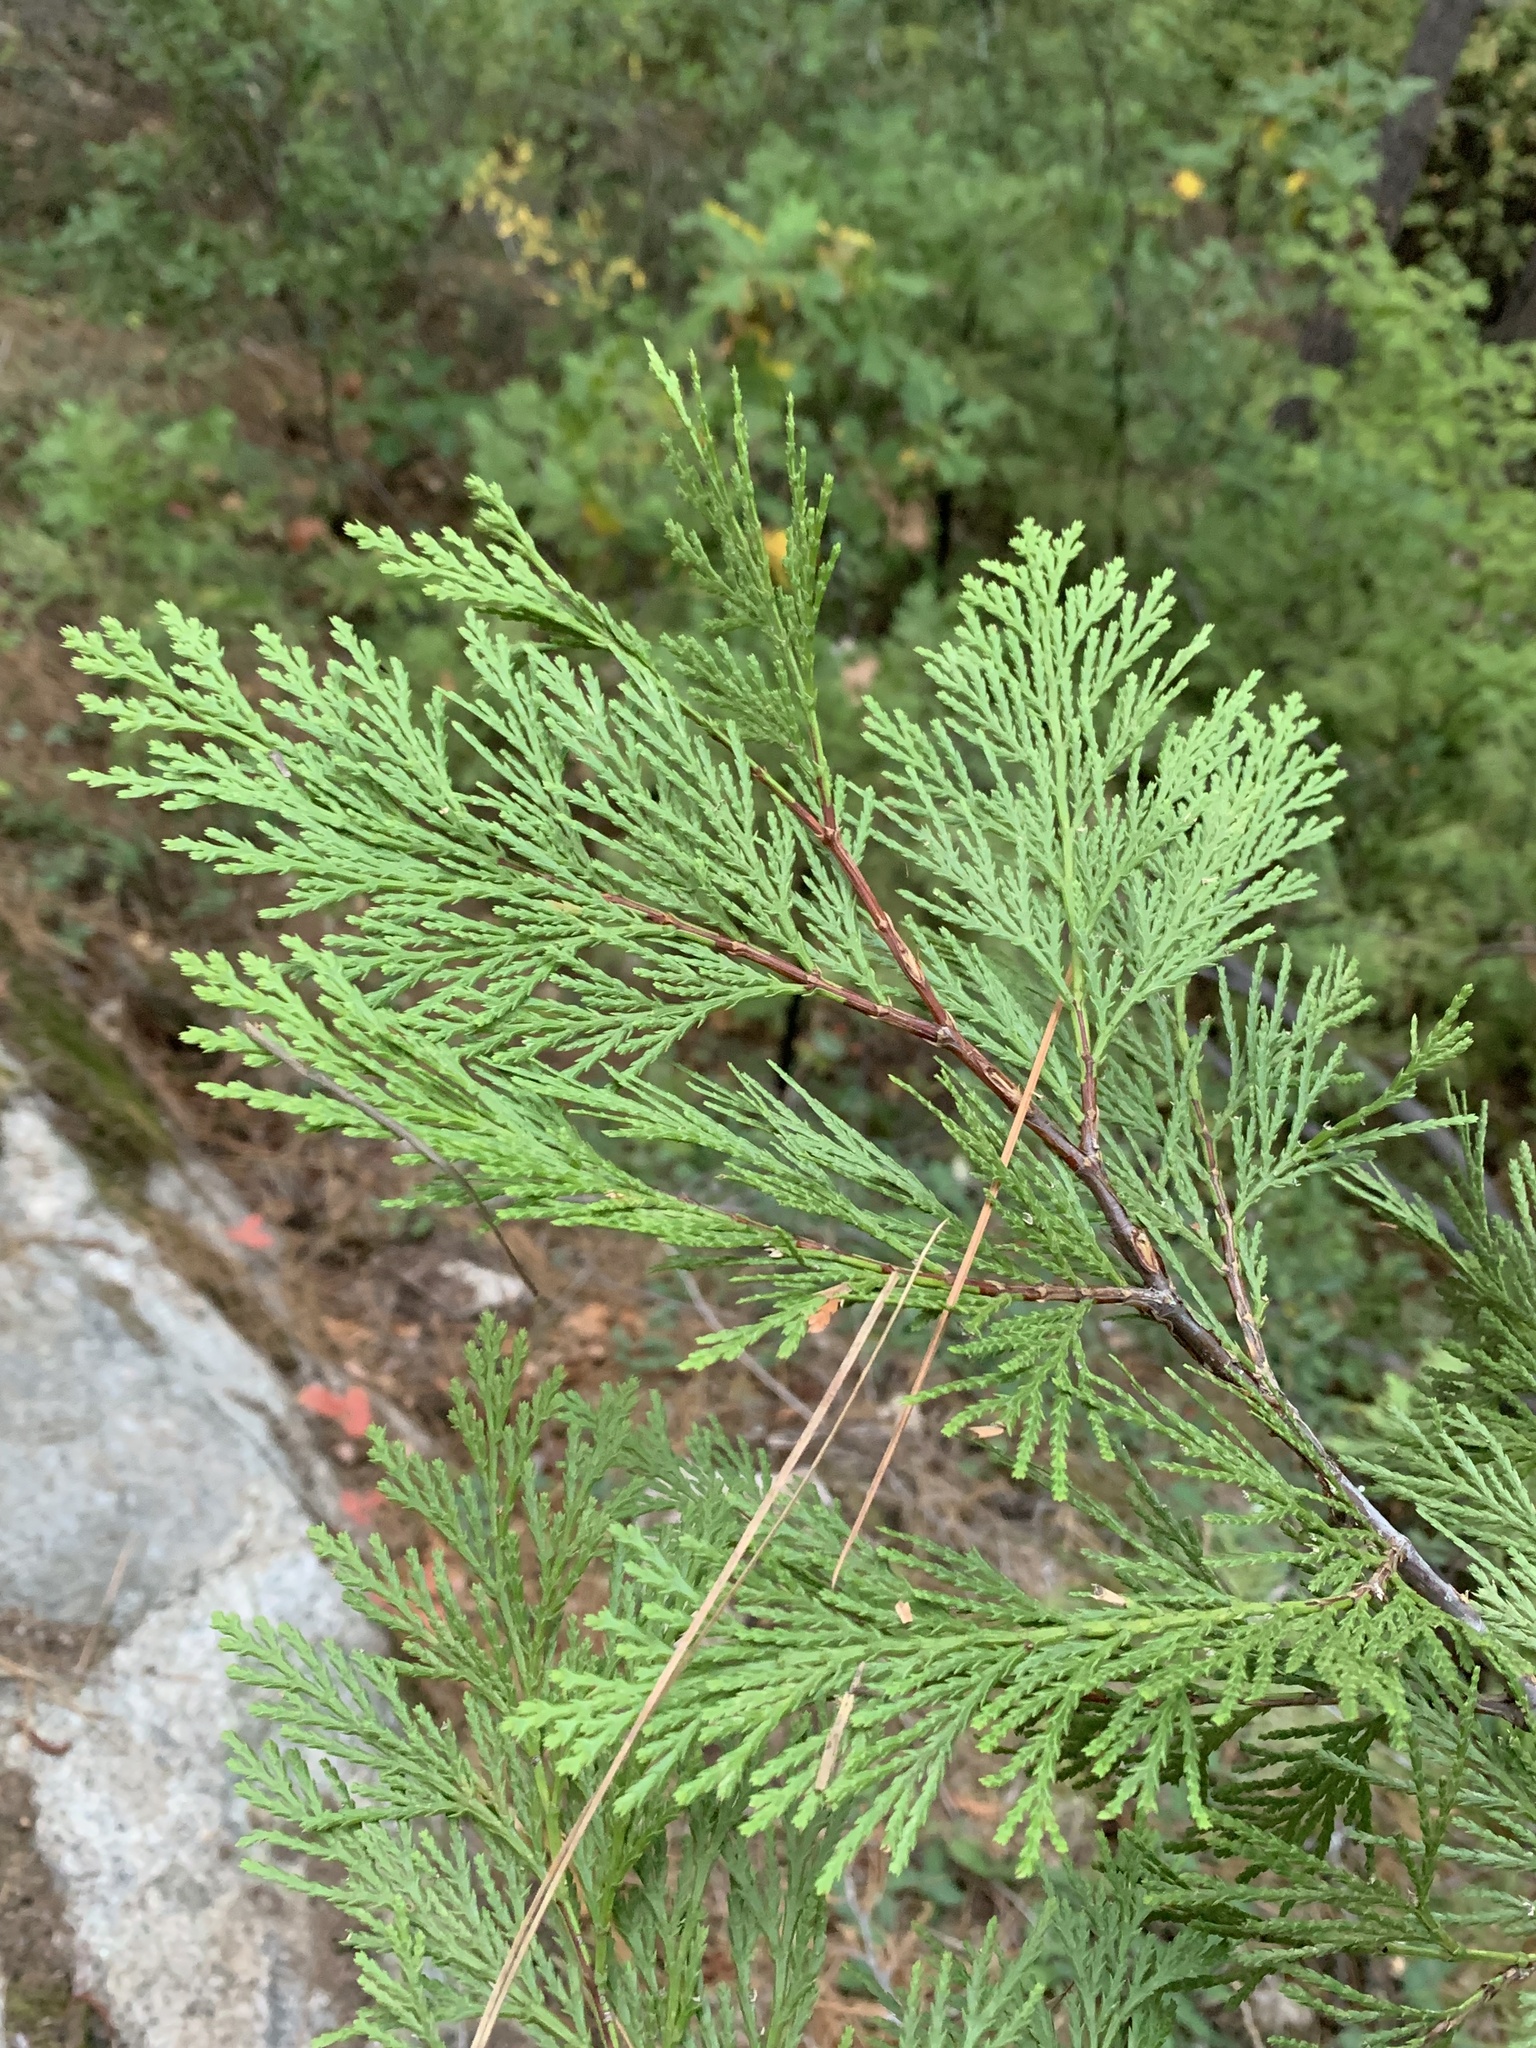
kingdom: Plantae
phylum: Tracheophyta
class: Pinopsida
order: Pinales
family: Cupressaceae
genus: Calocedrus
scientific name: Calocedrus decurrens
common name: Californian incense-cedar
